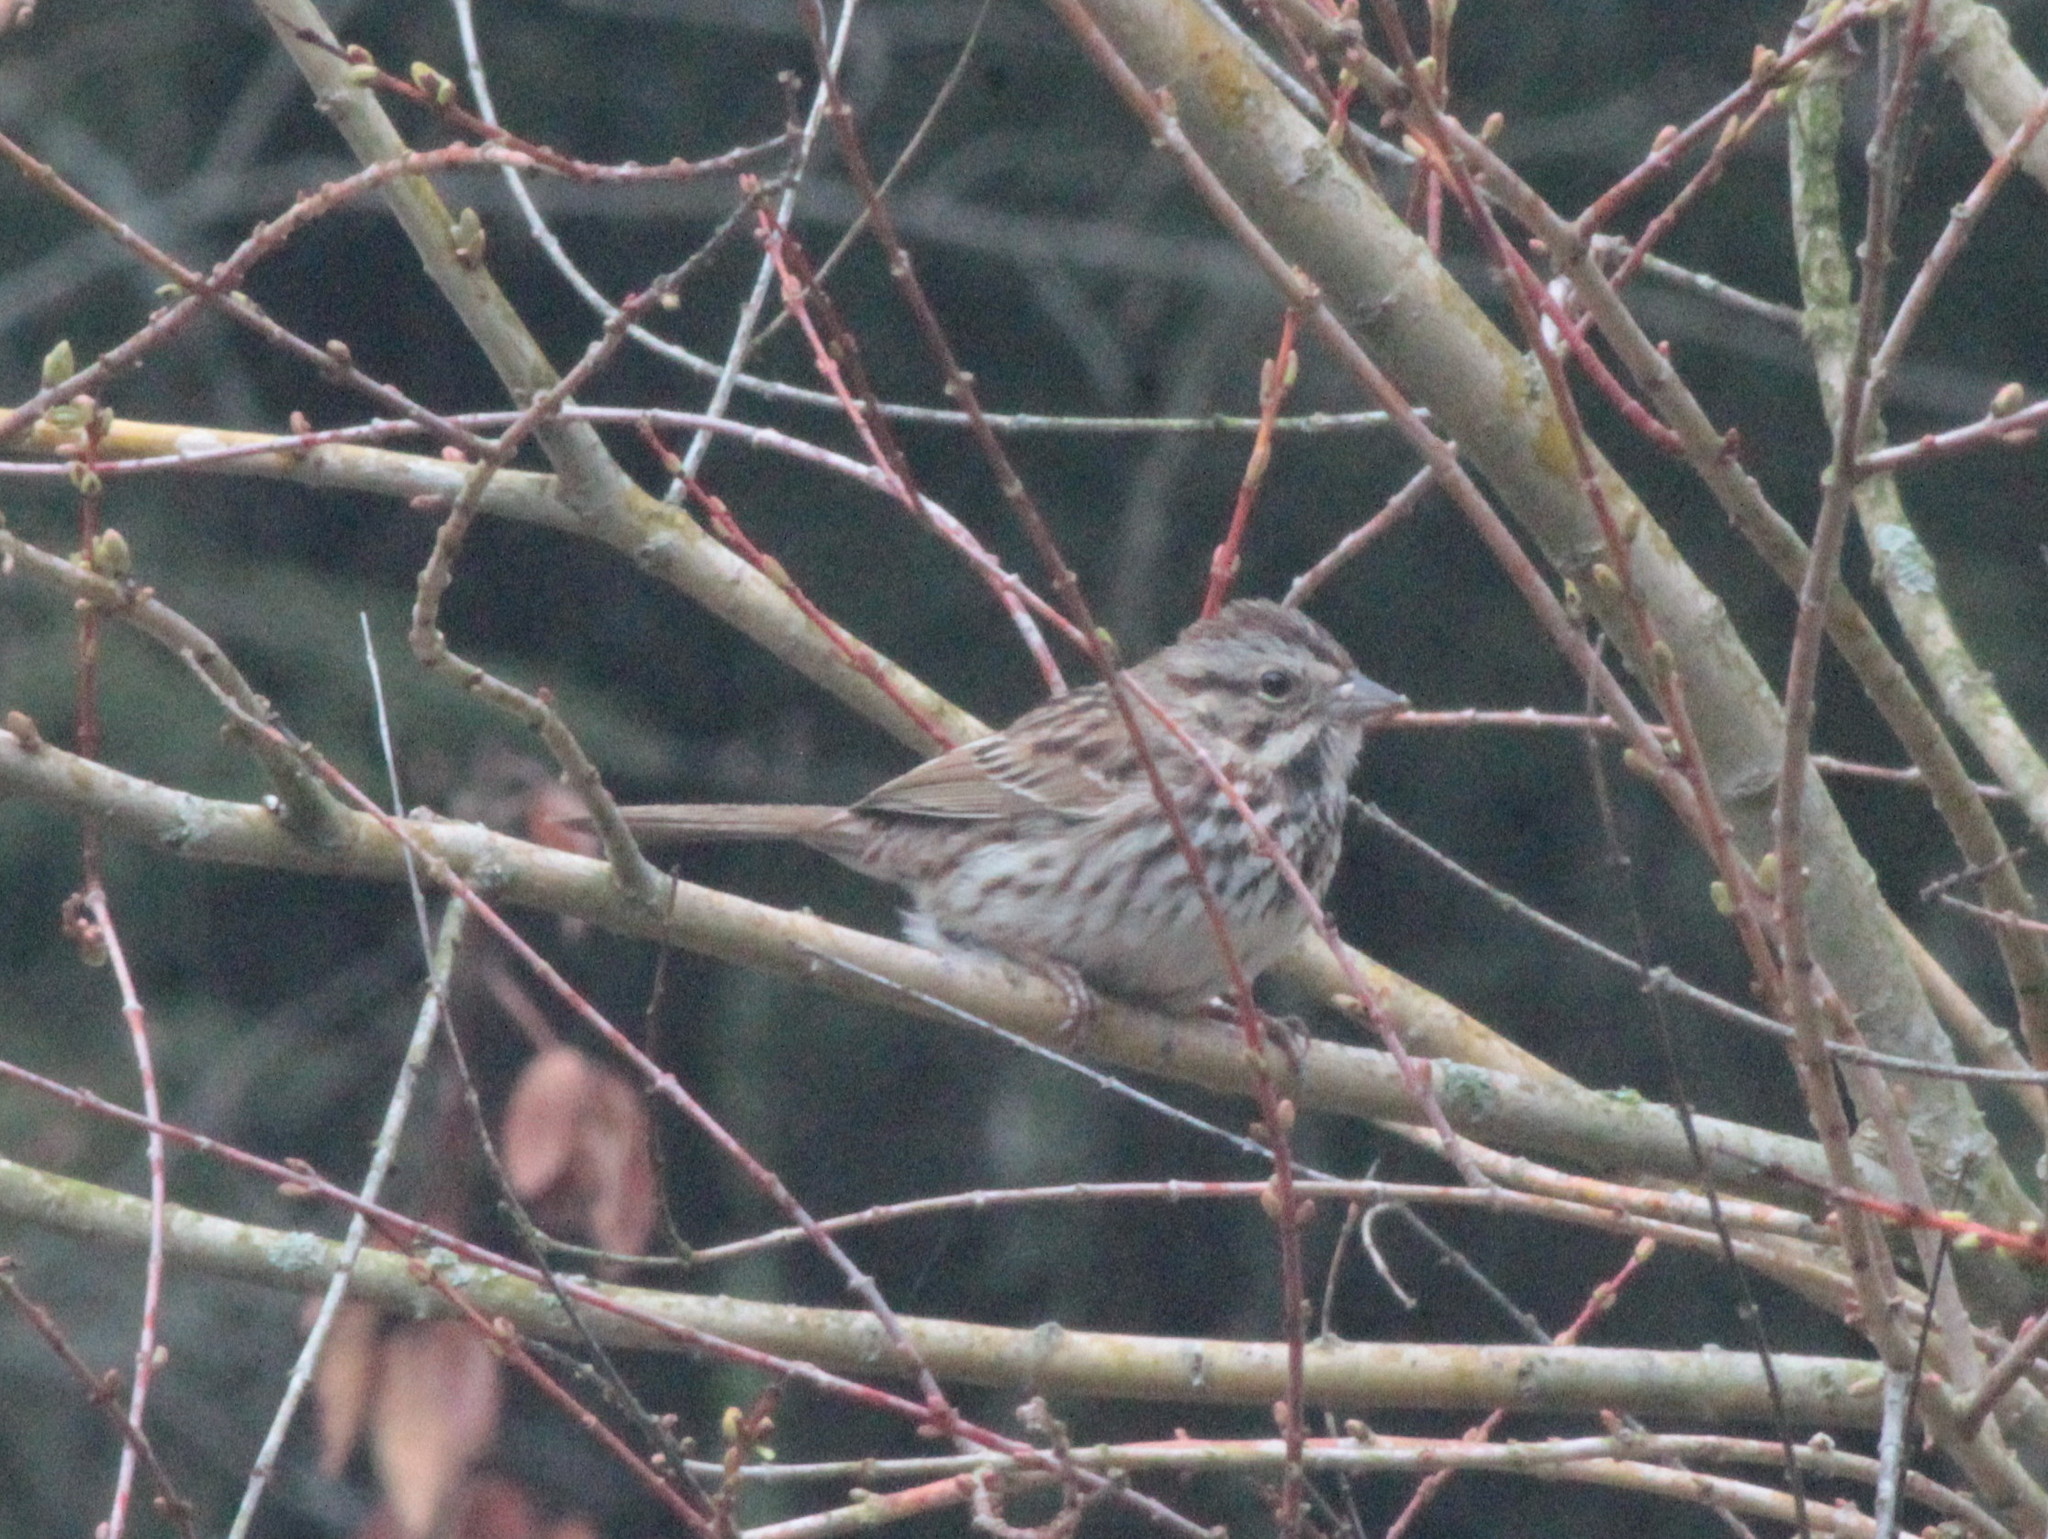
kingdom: Animalia
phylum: Chordata
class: Aves
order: Passeriformes
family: Passerellidae
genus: Melospiza
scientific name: Melospiza melodia
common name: Song sparrow
